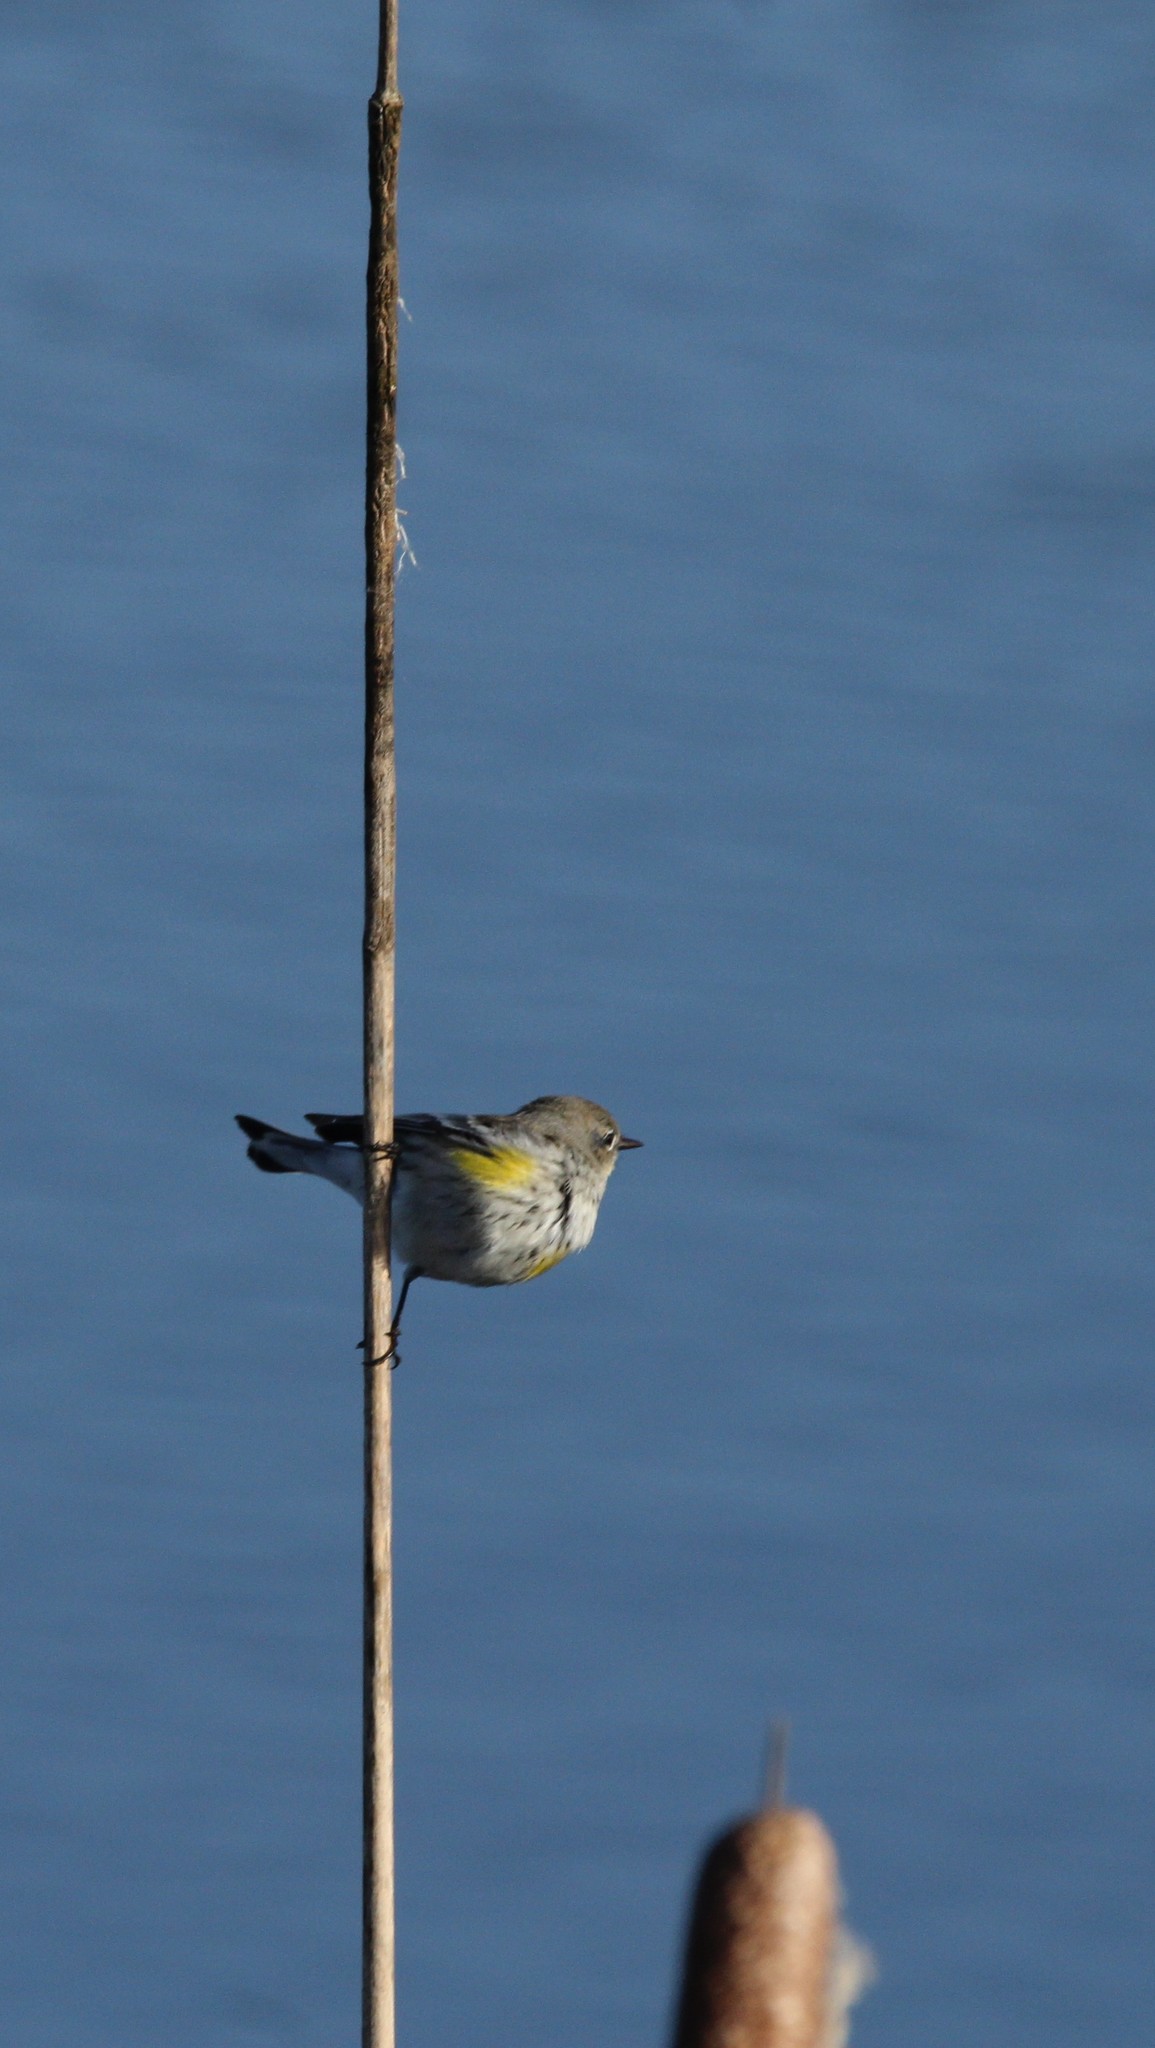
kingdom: Animalia
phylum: Chordata
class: Aves
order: Passeriformes
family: Parulidae
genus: Setophaga
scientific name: Setophaga coronata
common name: Myrtle warbler
